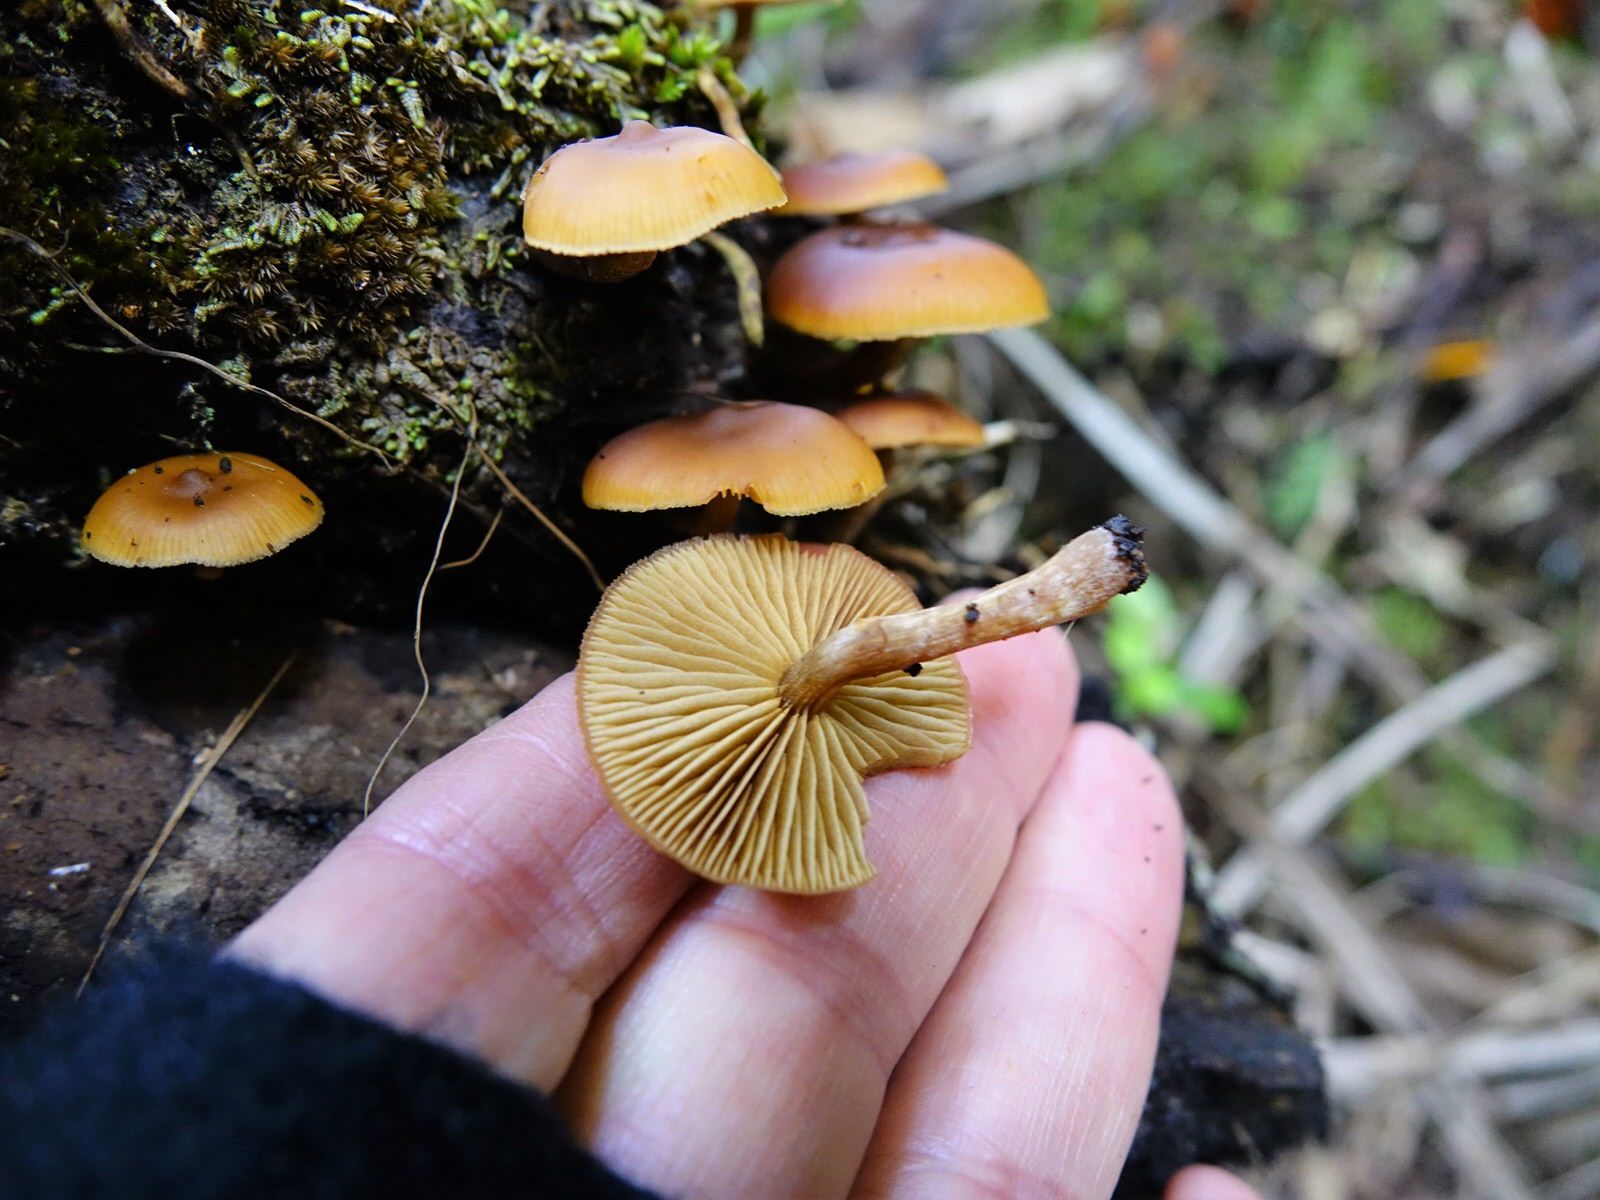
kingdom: Fungi
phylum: Basidiomycota
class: Agaricomycetes
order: Agaricales
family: Hymenogastraceae
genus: Galerina
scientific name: Galerina patagonica
